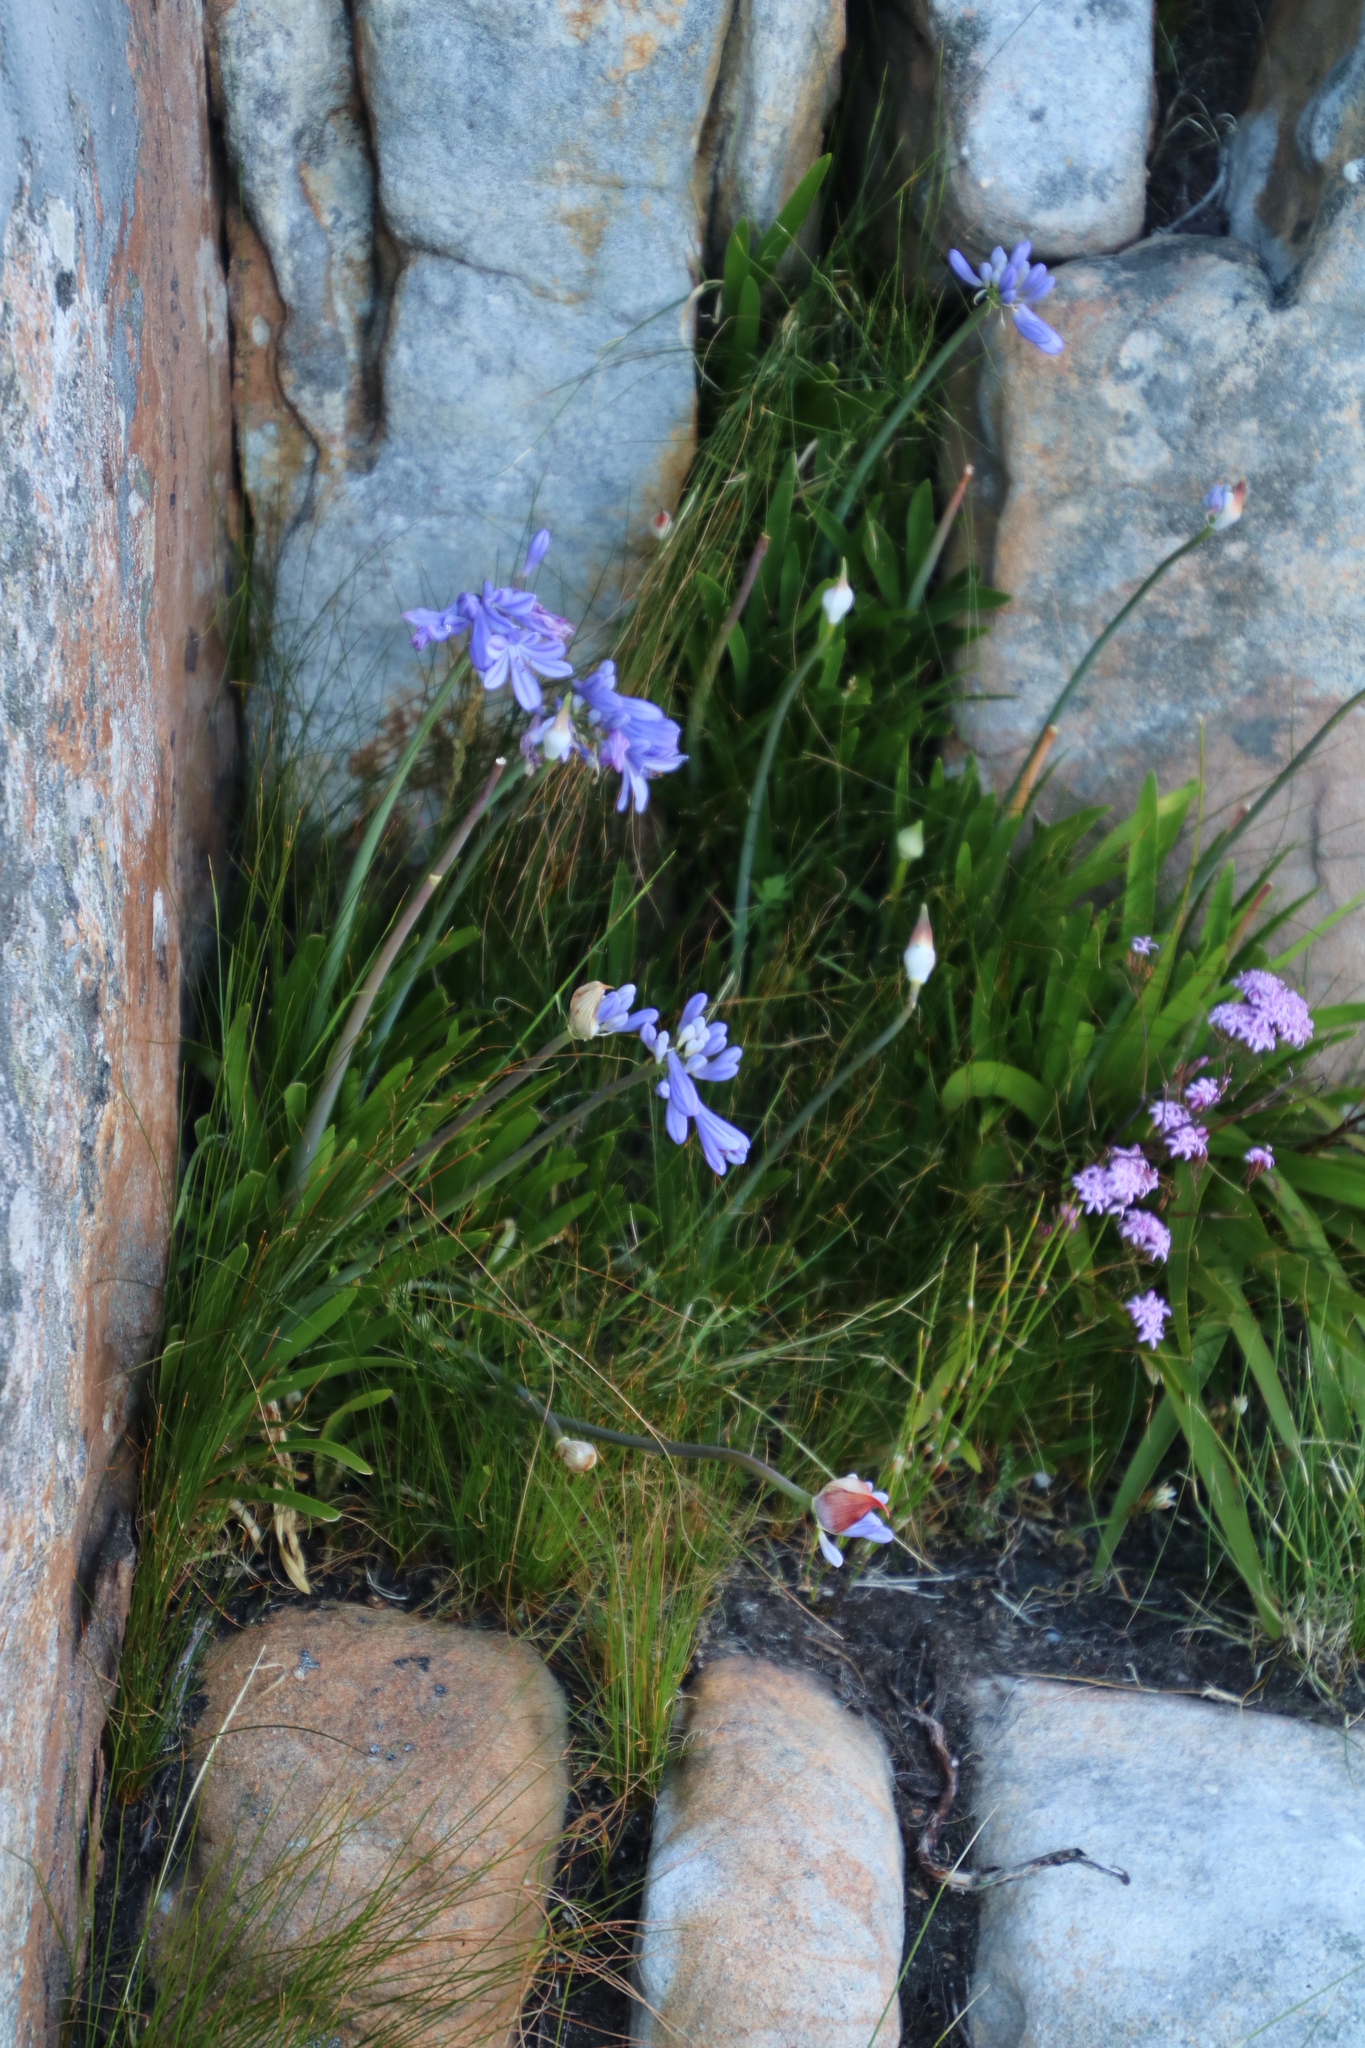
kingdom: Plantae
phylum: Tracheophyta
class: Liliopsida
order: Asparagales
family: Amaryllidaceae
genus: Agapanthus
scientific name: Agapanthus africanus
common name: Lily-of-the-nile
